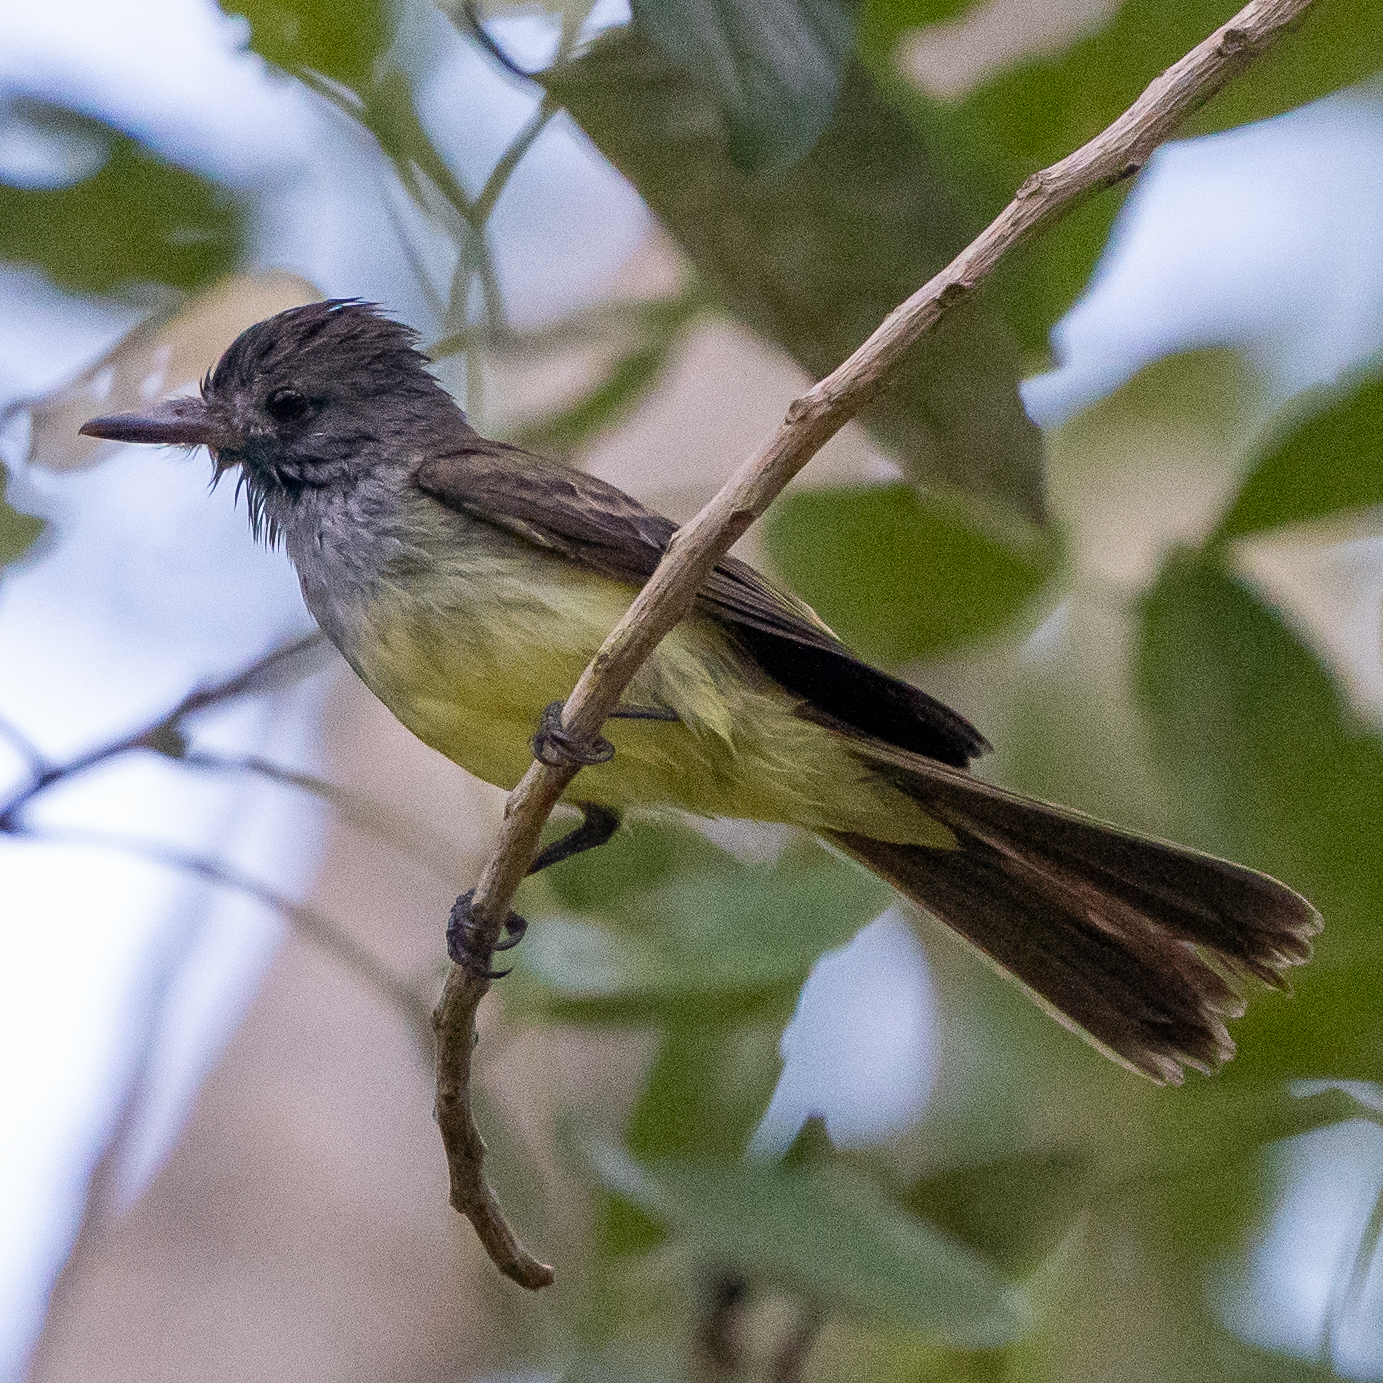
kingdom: Animalia
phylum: Chordata
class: Aves
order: Passeriformes
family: Tyrannidae
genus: Myiarchus
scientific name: Myiarchus tuberculifer
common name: Dusky-capped flycatcher
